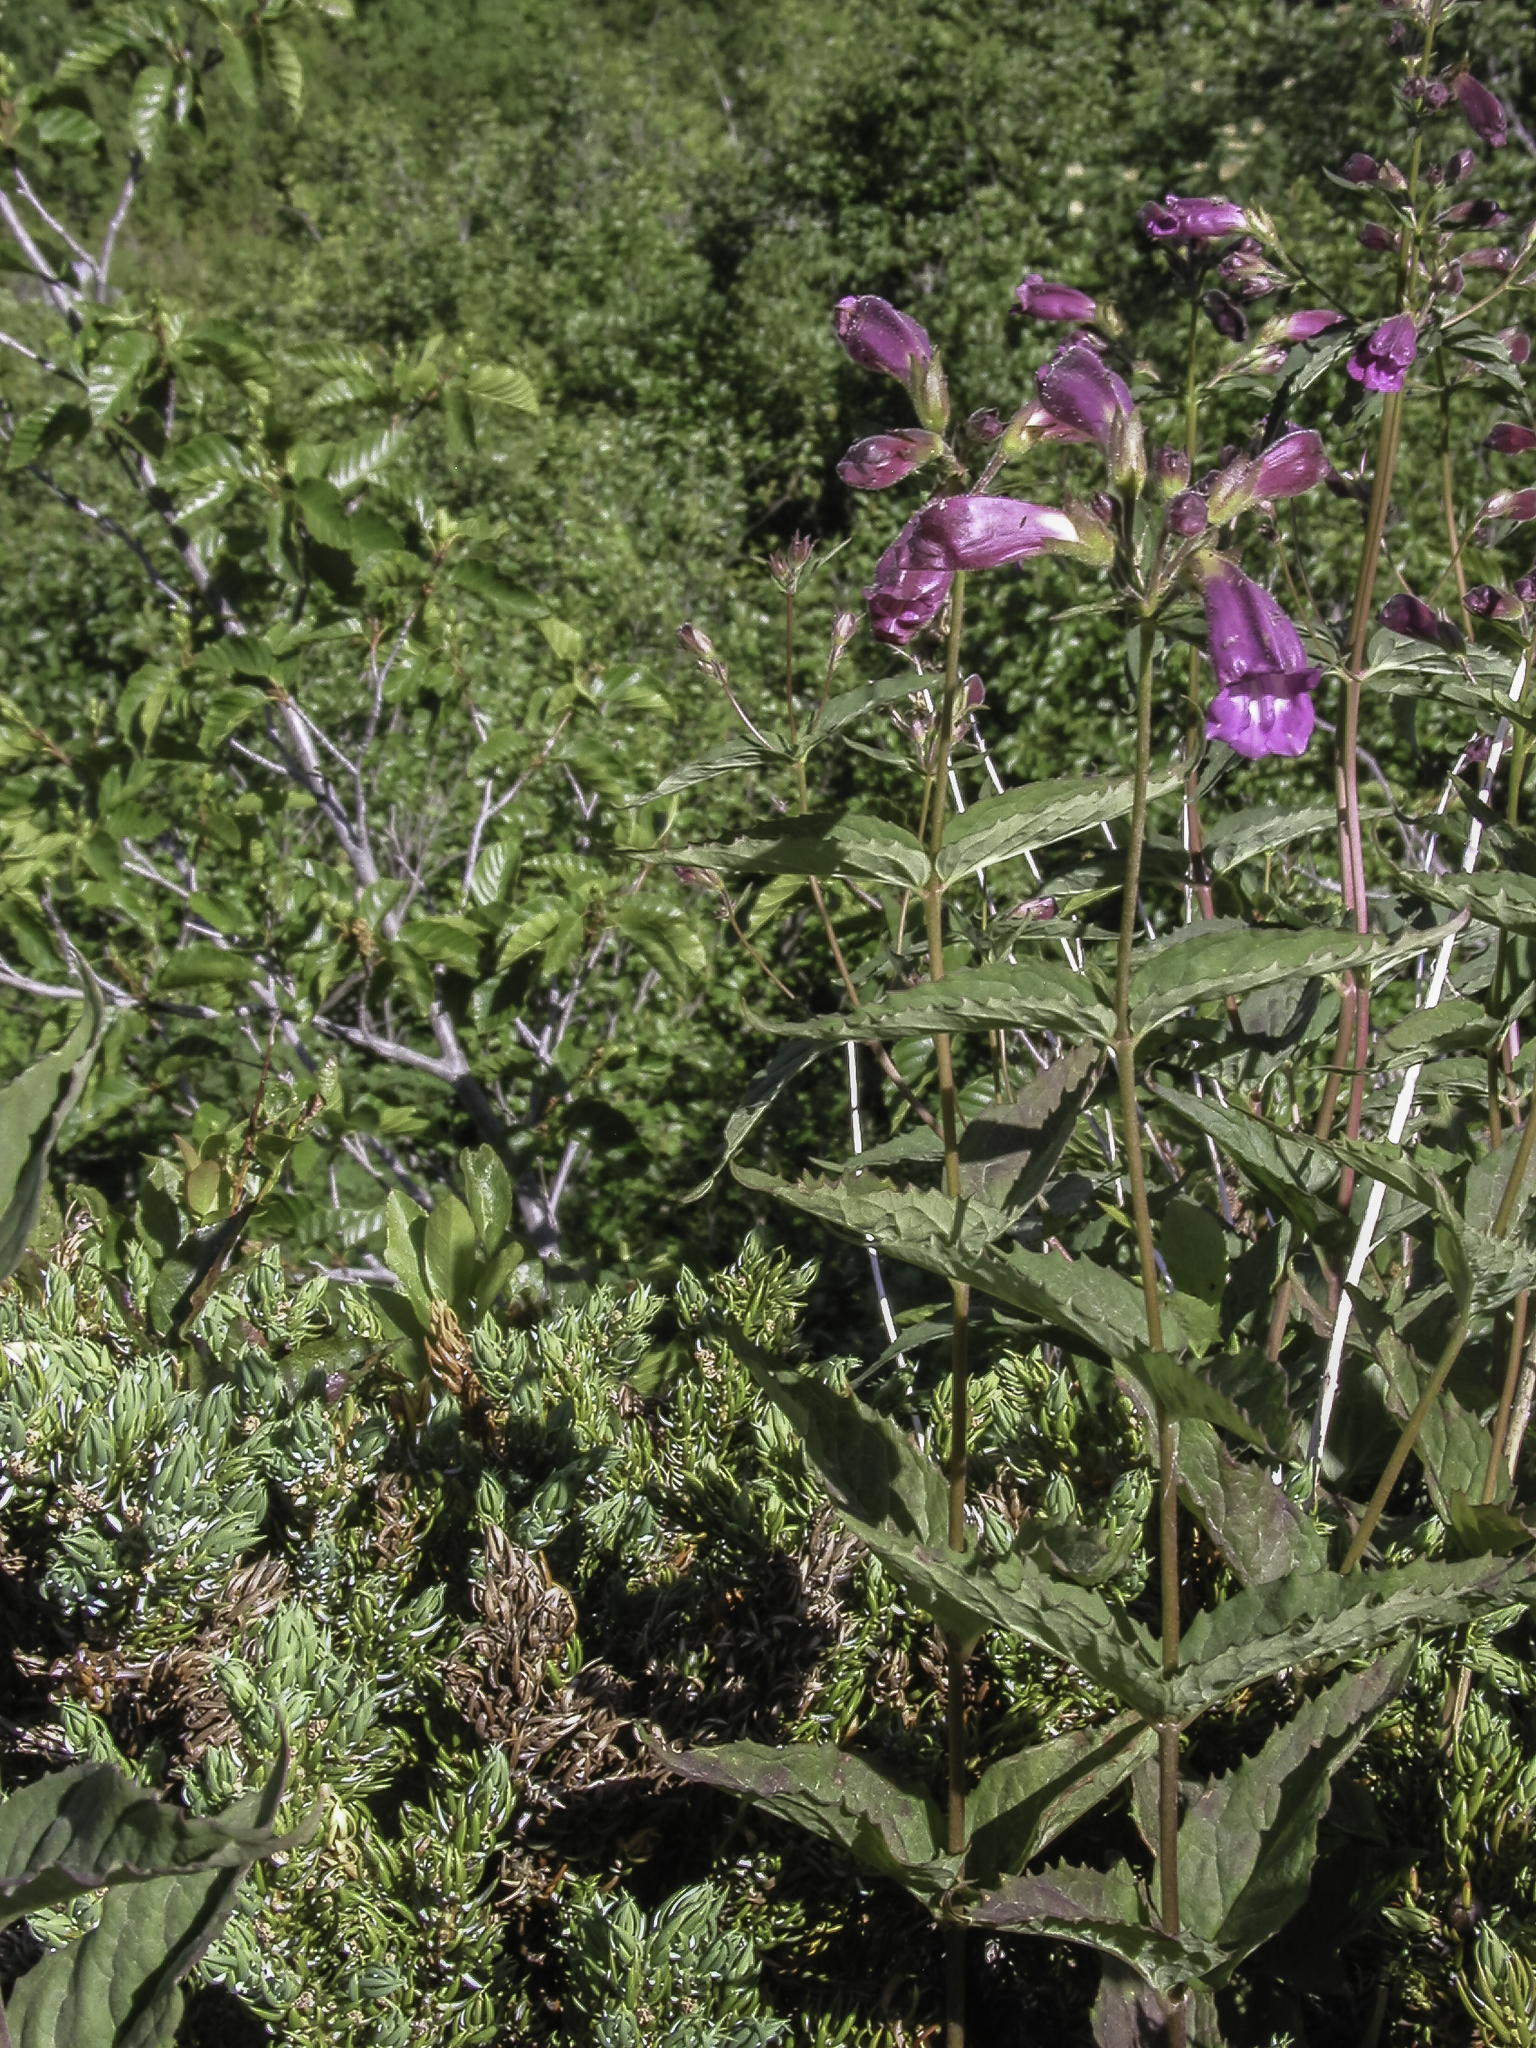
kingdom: Plantae
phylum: Tracheophyta
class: Magnoliopsida
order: Lamiales
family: Plantaginaceae
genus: Nothochelone
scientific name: Nothochelone nemorosa
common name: Woodland beardtongue
